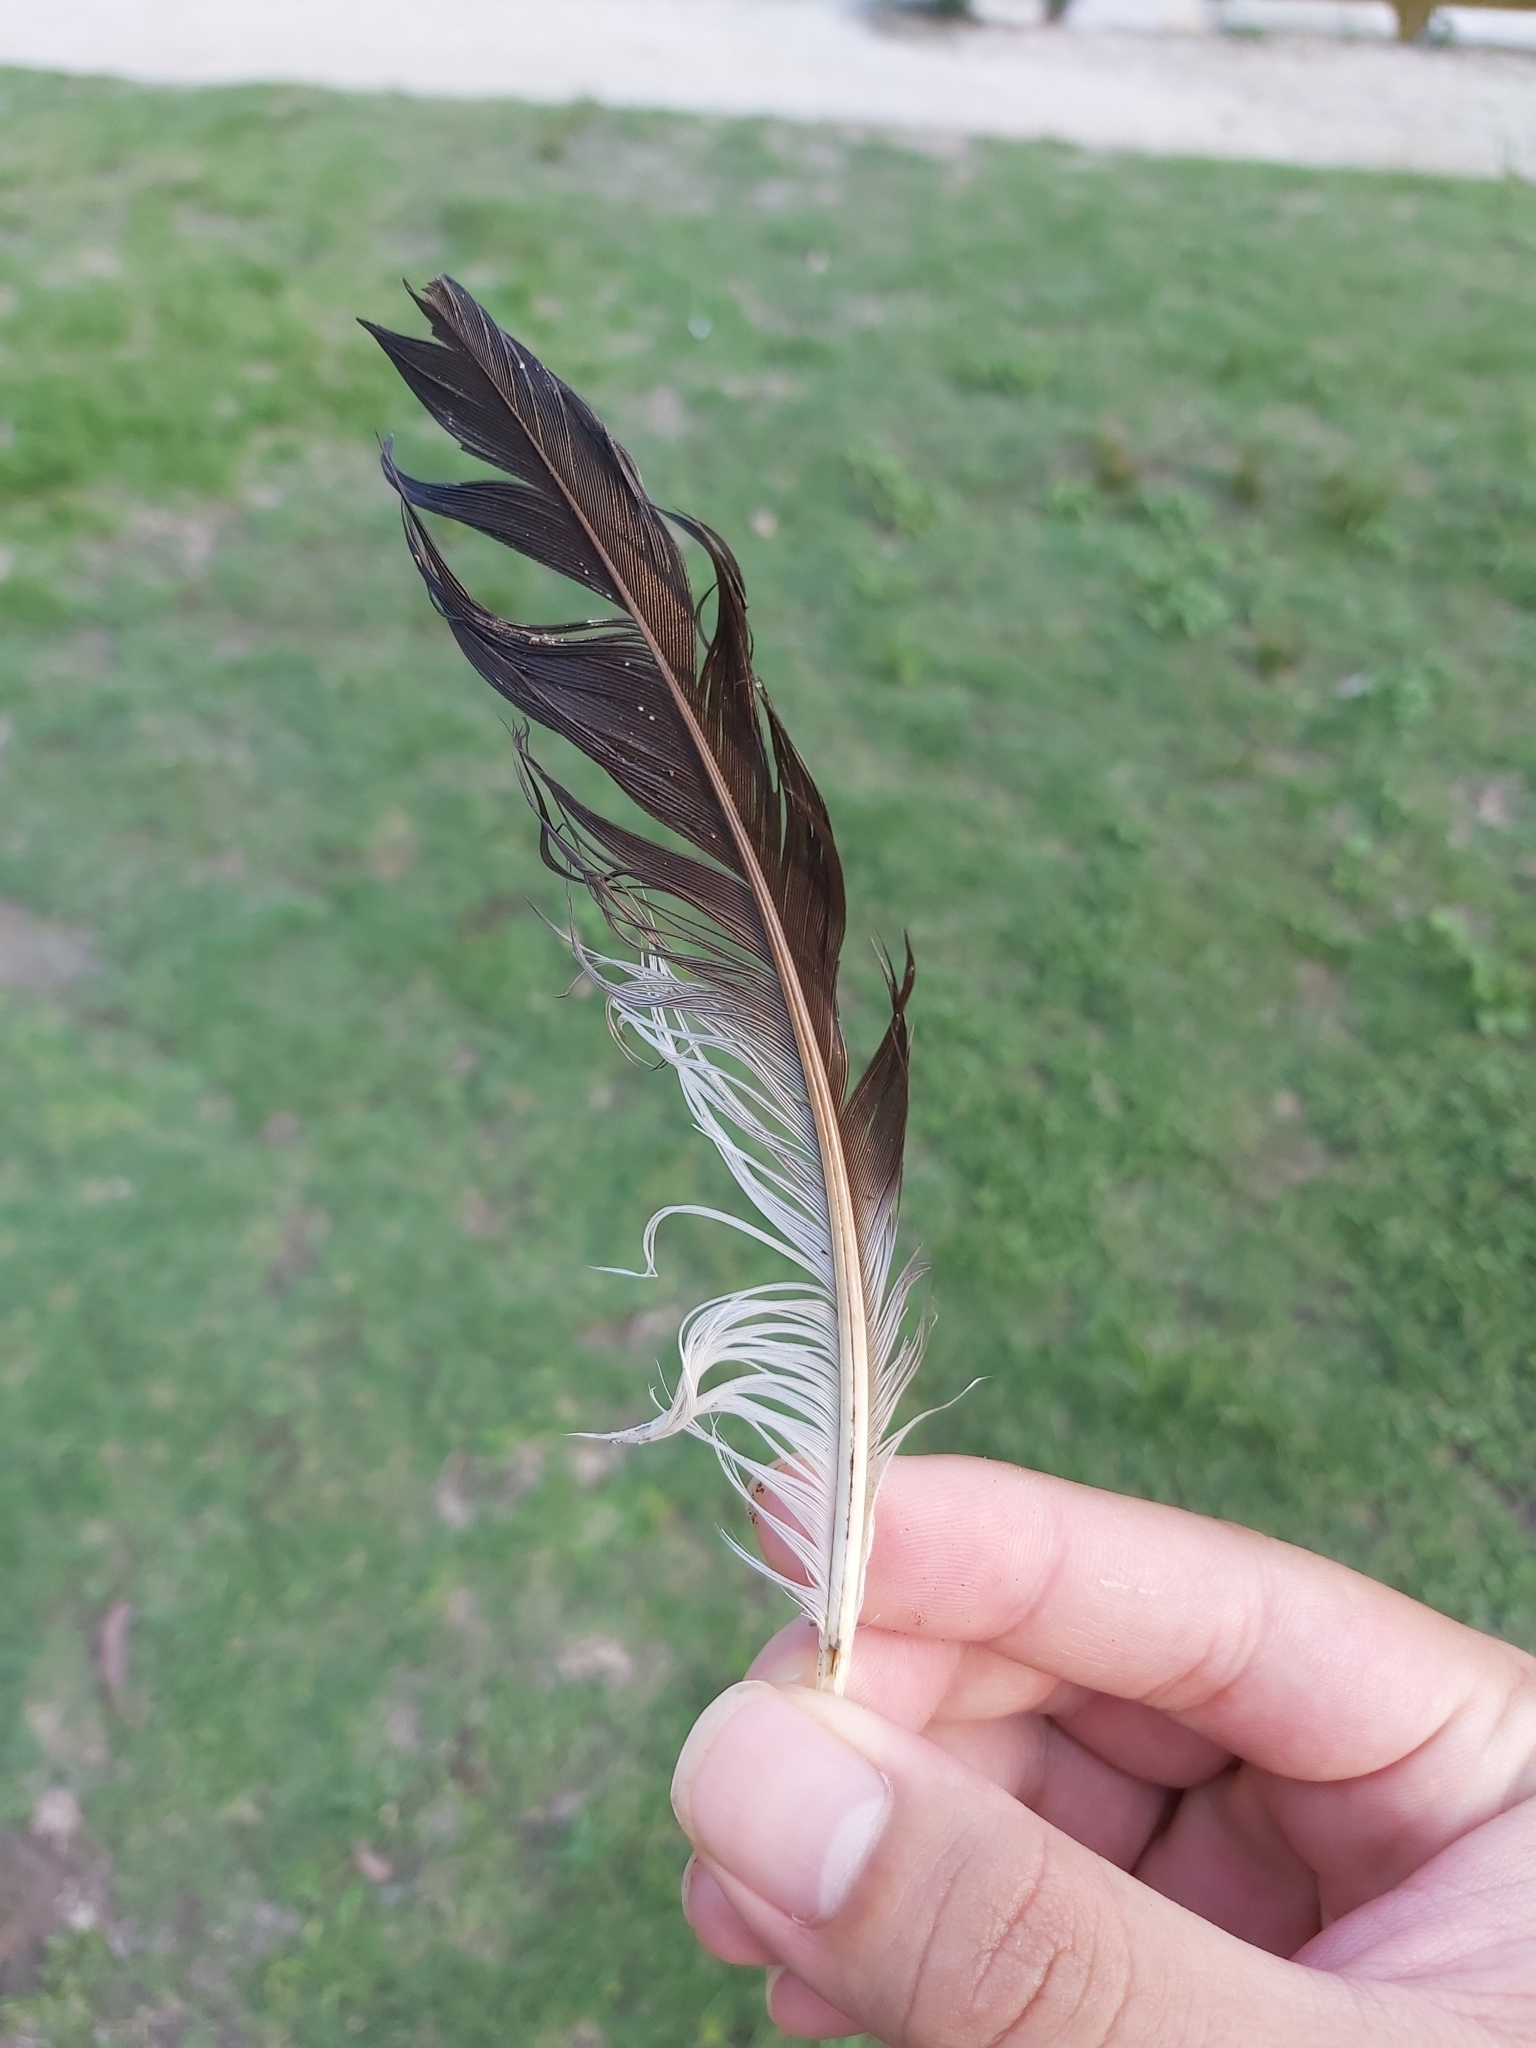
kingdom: Animalia
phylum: Chordata
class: Aves
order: Charadriiformes
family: Charadriidae
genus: Vanellus
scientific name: Vanellus miles
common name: Masked lapwing
